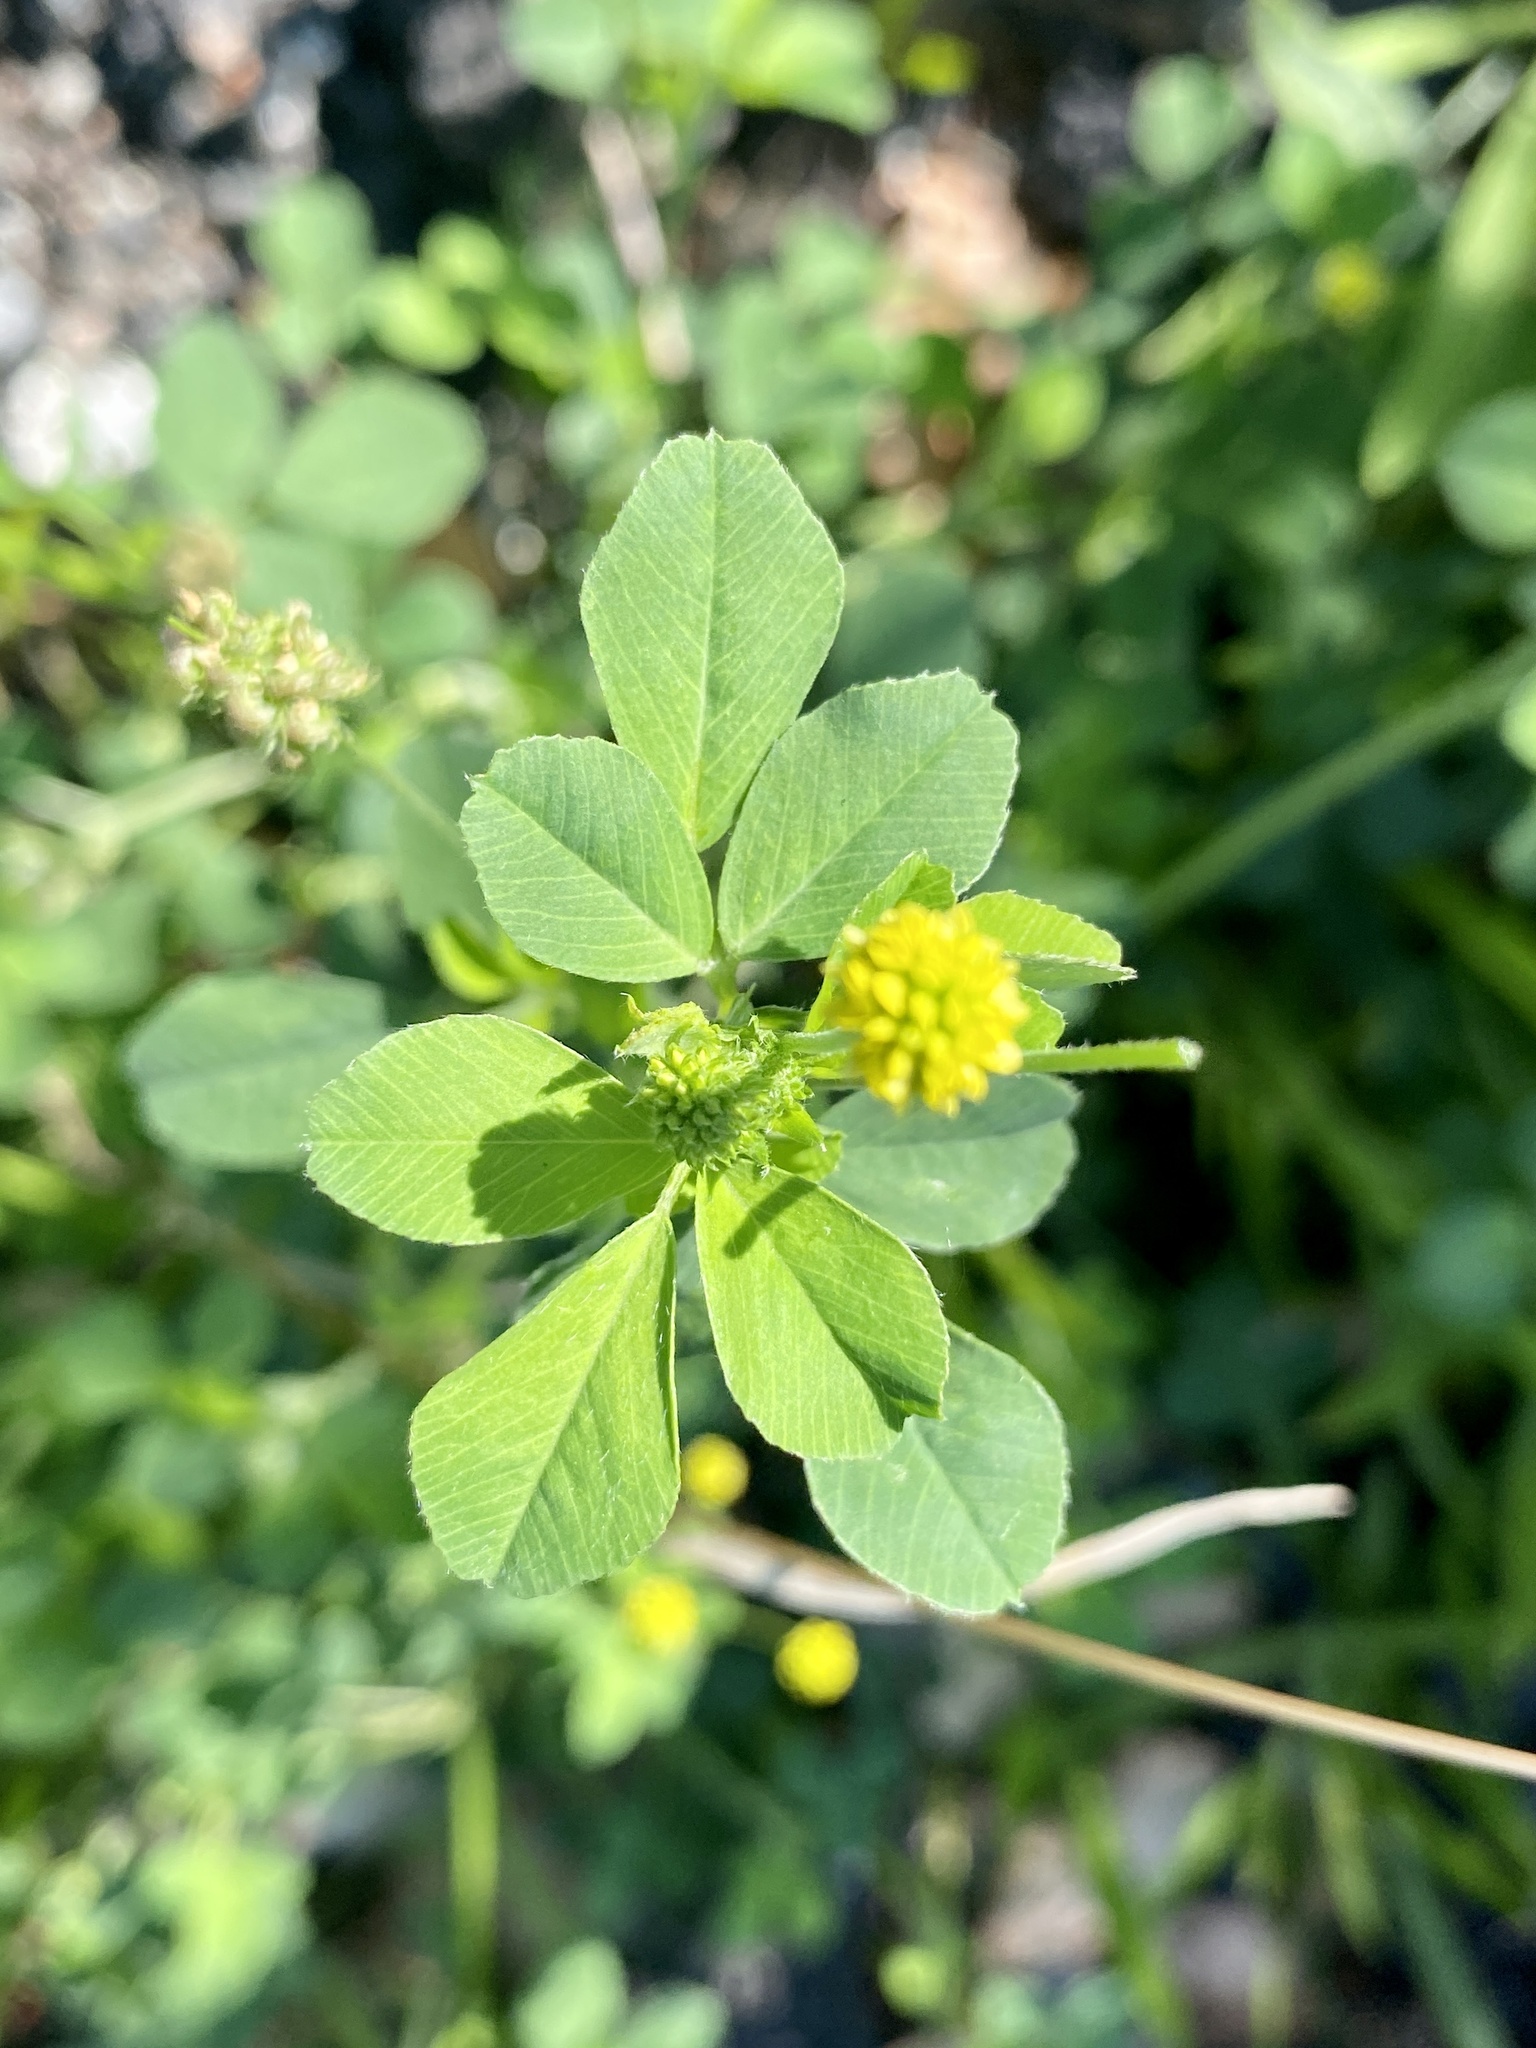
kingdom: Plantae
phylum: Tracheophyta
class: Magnoliopsida
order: Fabales
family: Fabaceae
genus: Medicago
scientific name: Medicago lupulina
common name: Black medick
